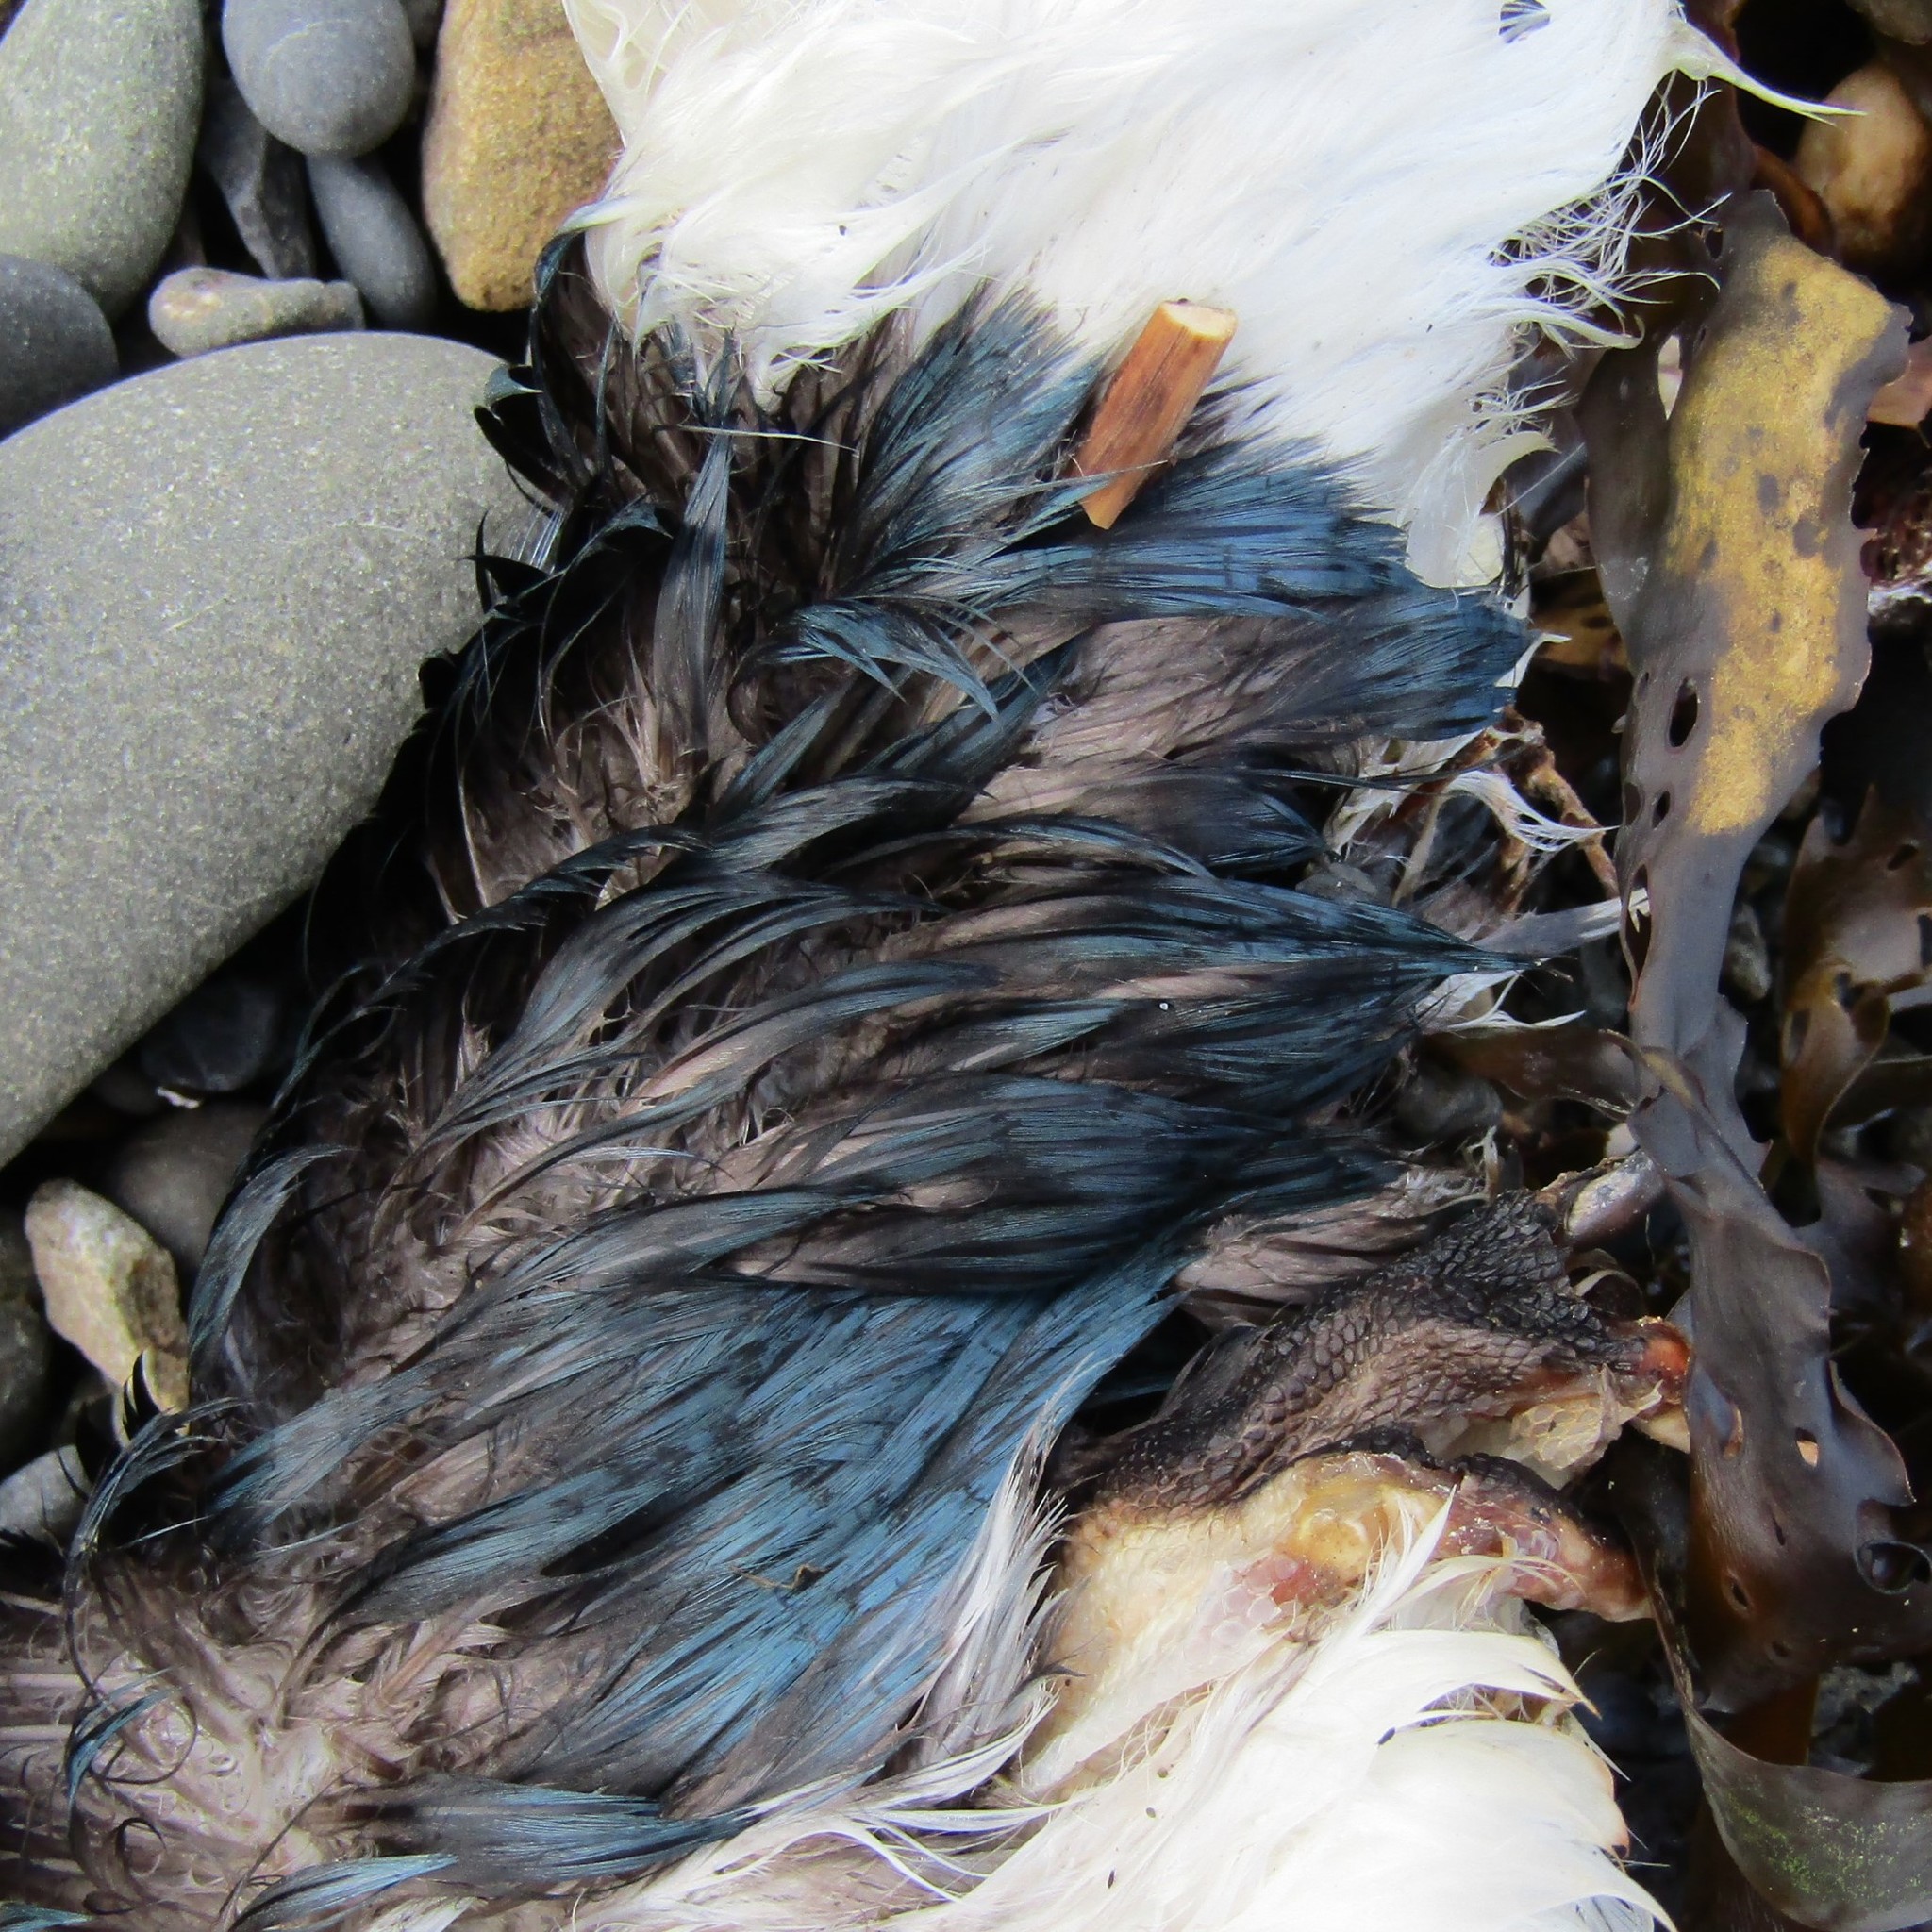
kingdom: Animalia
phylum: Chordata
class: Aves
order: Sphenisciformes
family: Spheniscidae
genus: Eudyptula
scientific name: Eudyptula minor
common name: Little penguin
